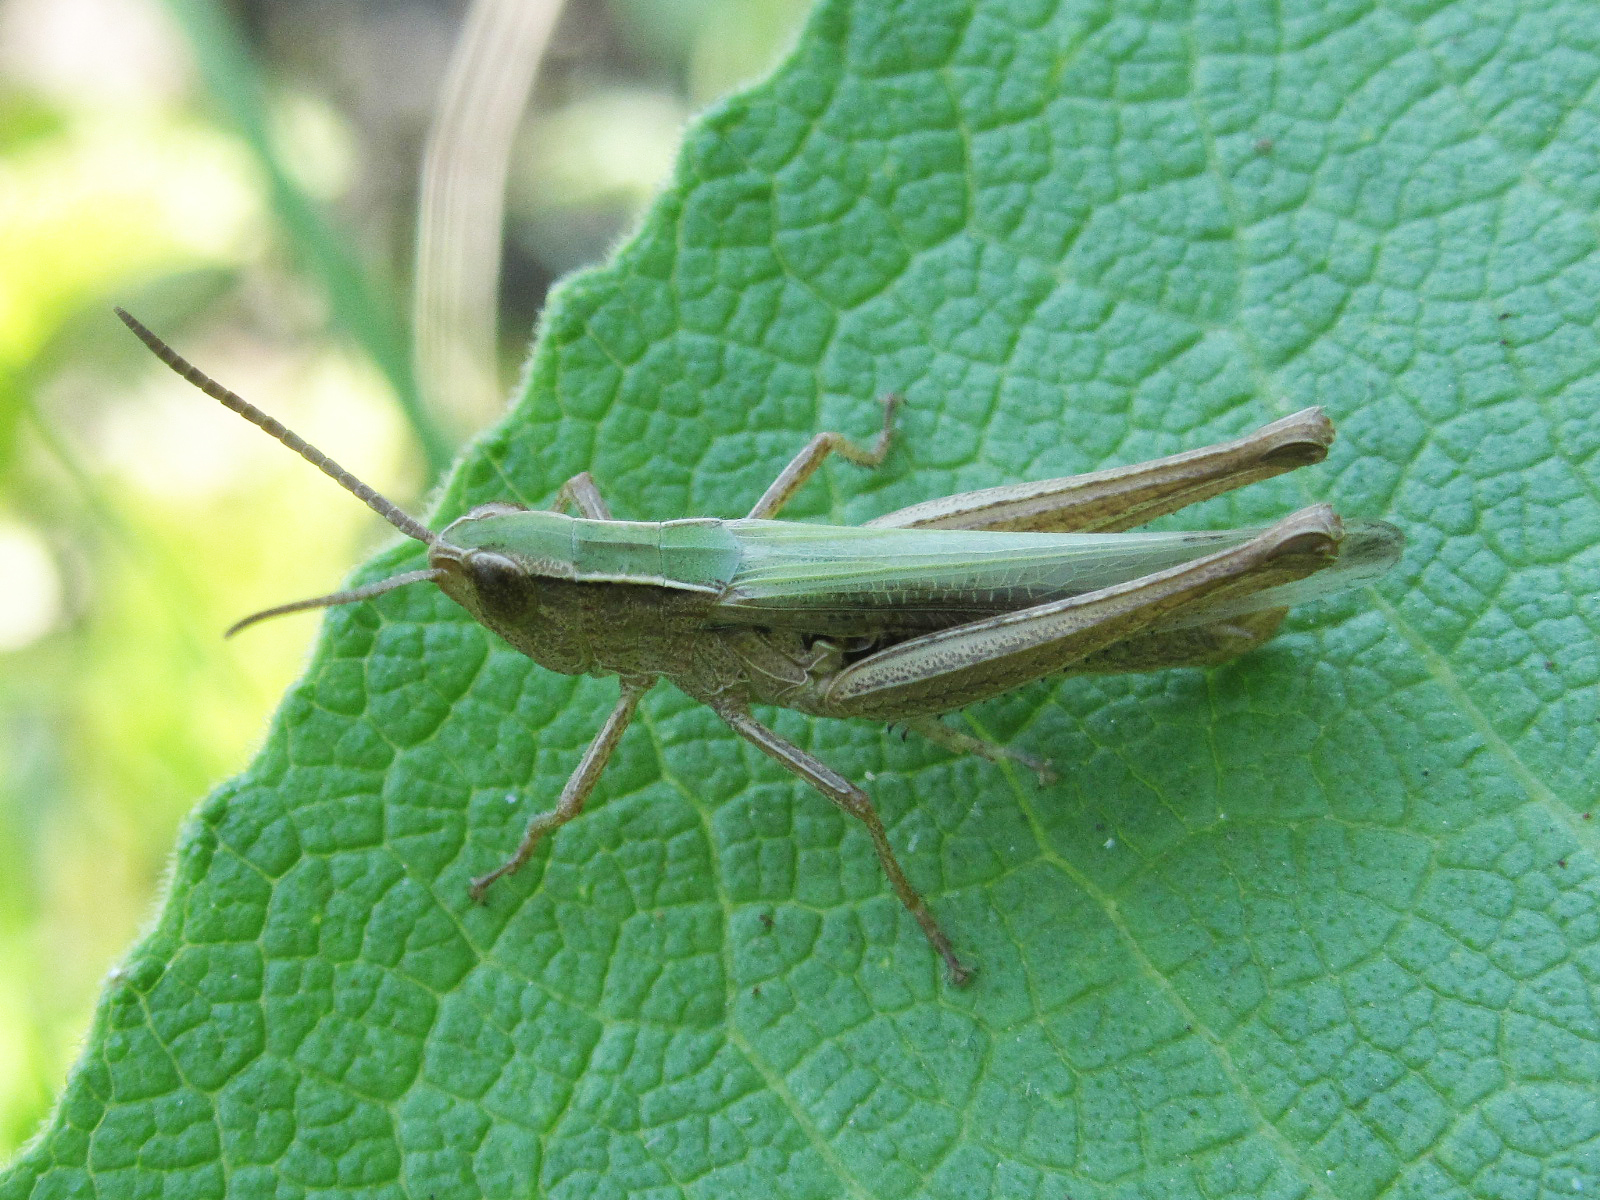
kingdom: Animalia
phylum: Arthropoda
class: Insecta
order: Orthoptera
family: Acrididae
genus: Chorthippus
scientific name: Chorthippus karelini
